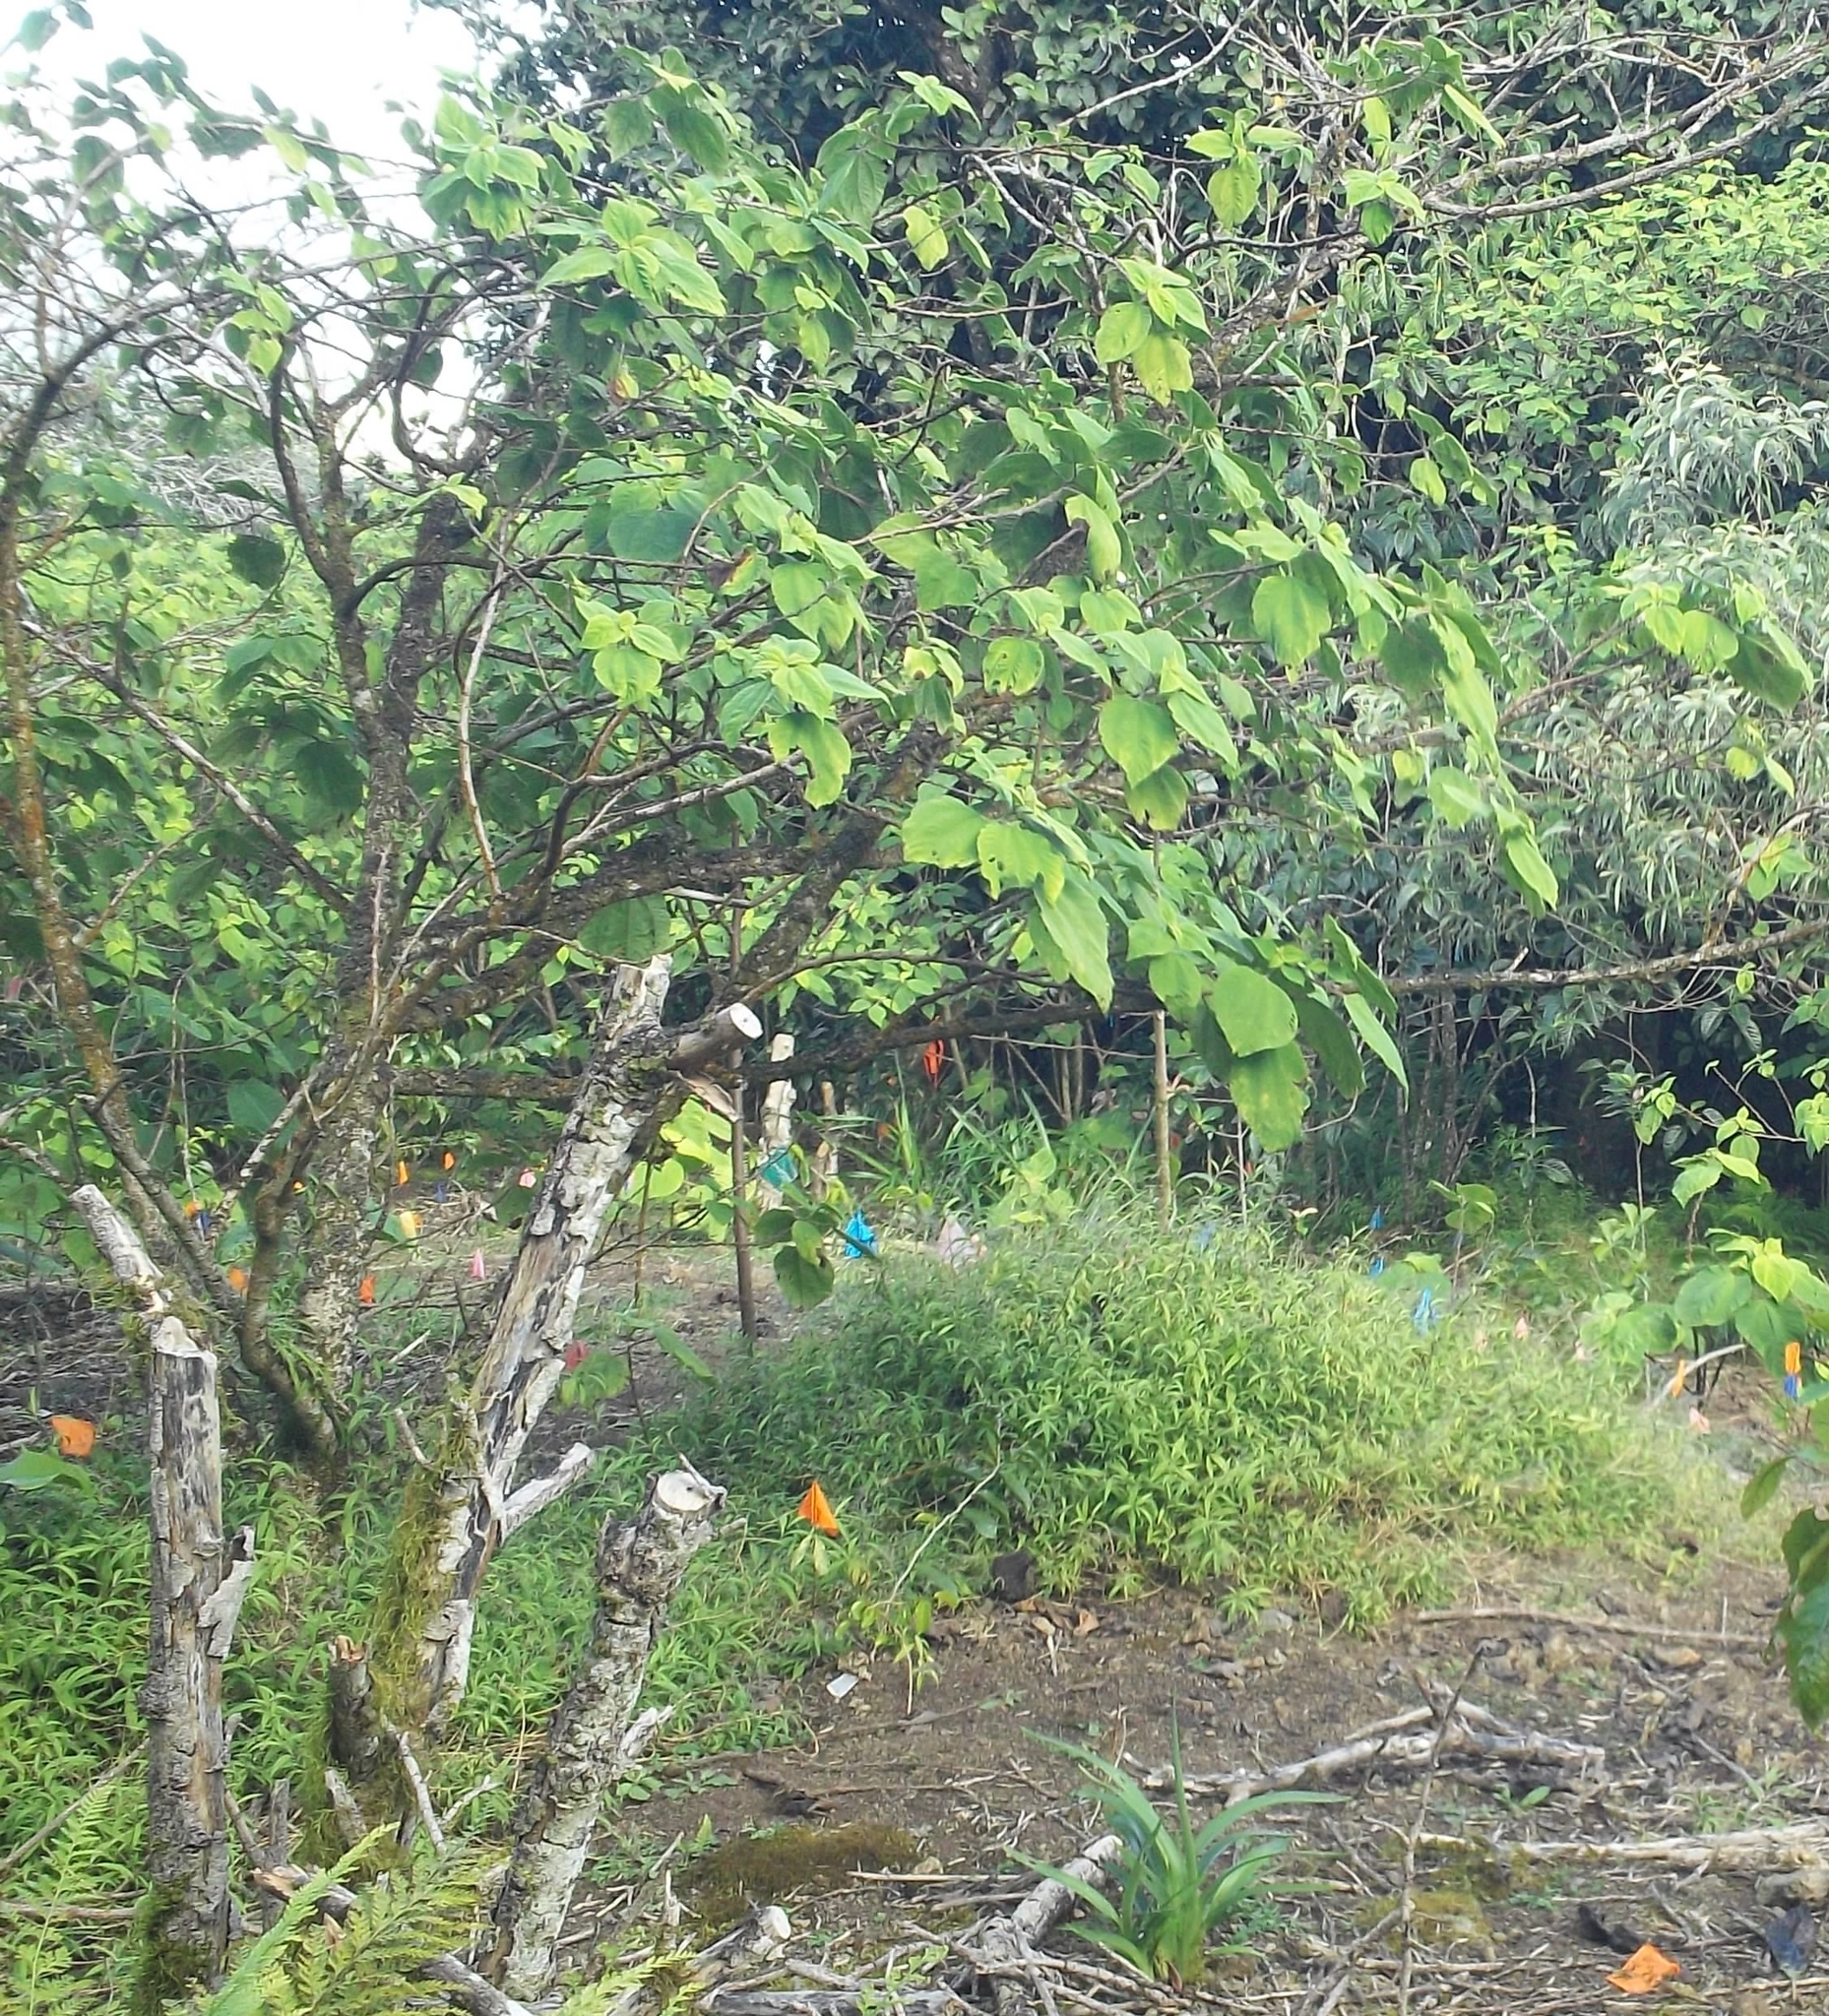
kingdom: Plantae
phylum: Tracheophyta
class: Magnoliopsida
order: Rosales
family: Urticaceae
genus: Pipturus
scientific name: Pipturus albidus
